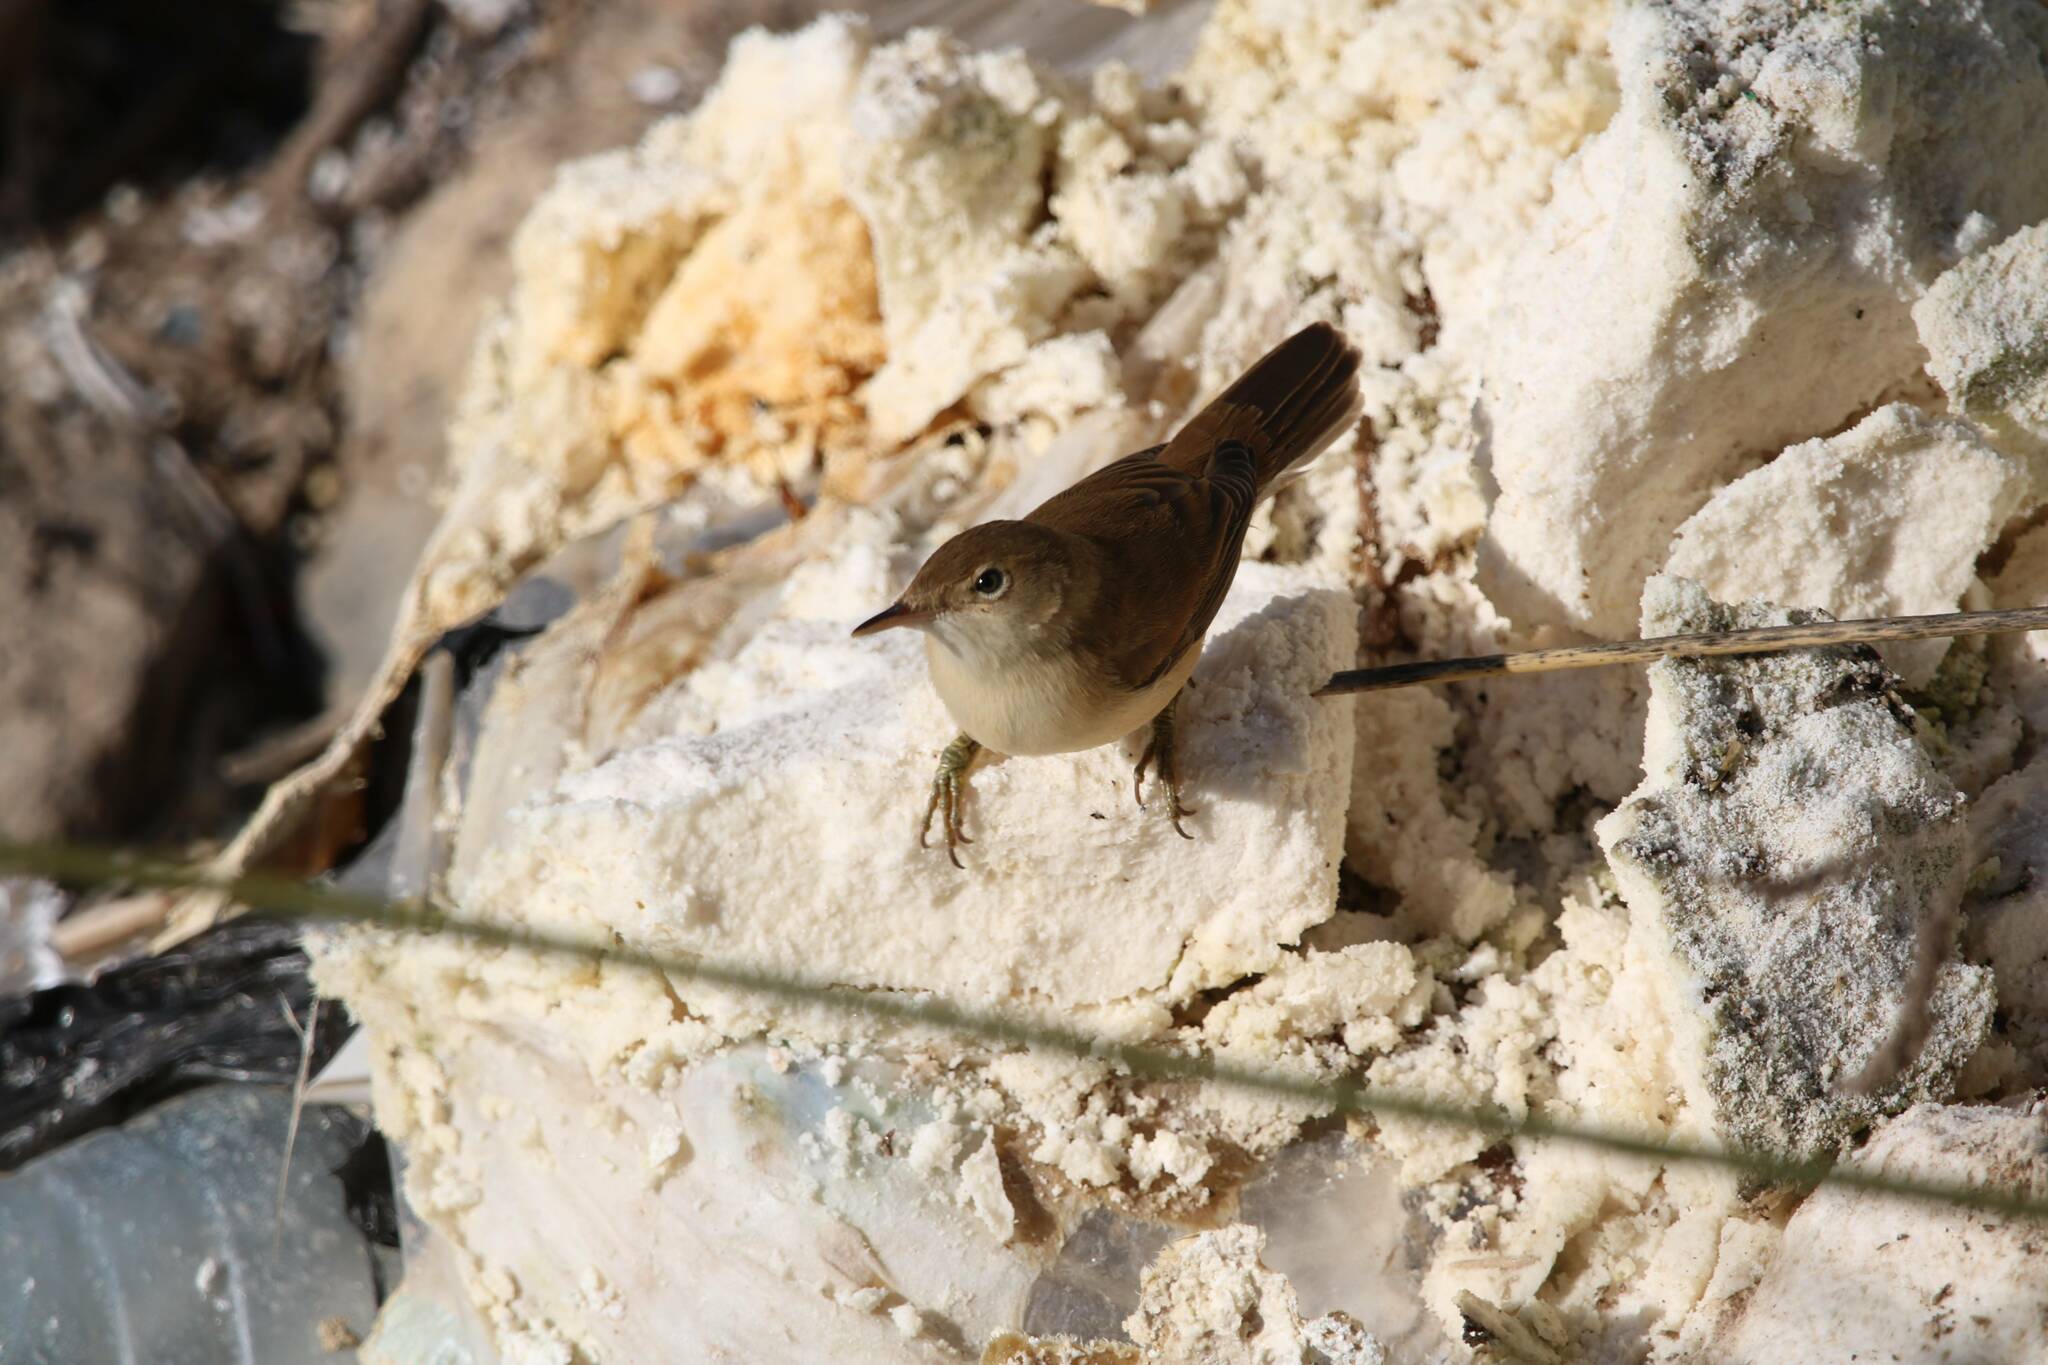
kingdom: Animalia
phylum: Chordata
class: Aves
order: Passeriformes
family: Acrocephalidae
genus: Acrocephalus
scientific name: Acrocephalus scirpaceus
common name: Eurasian reed warbler
